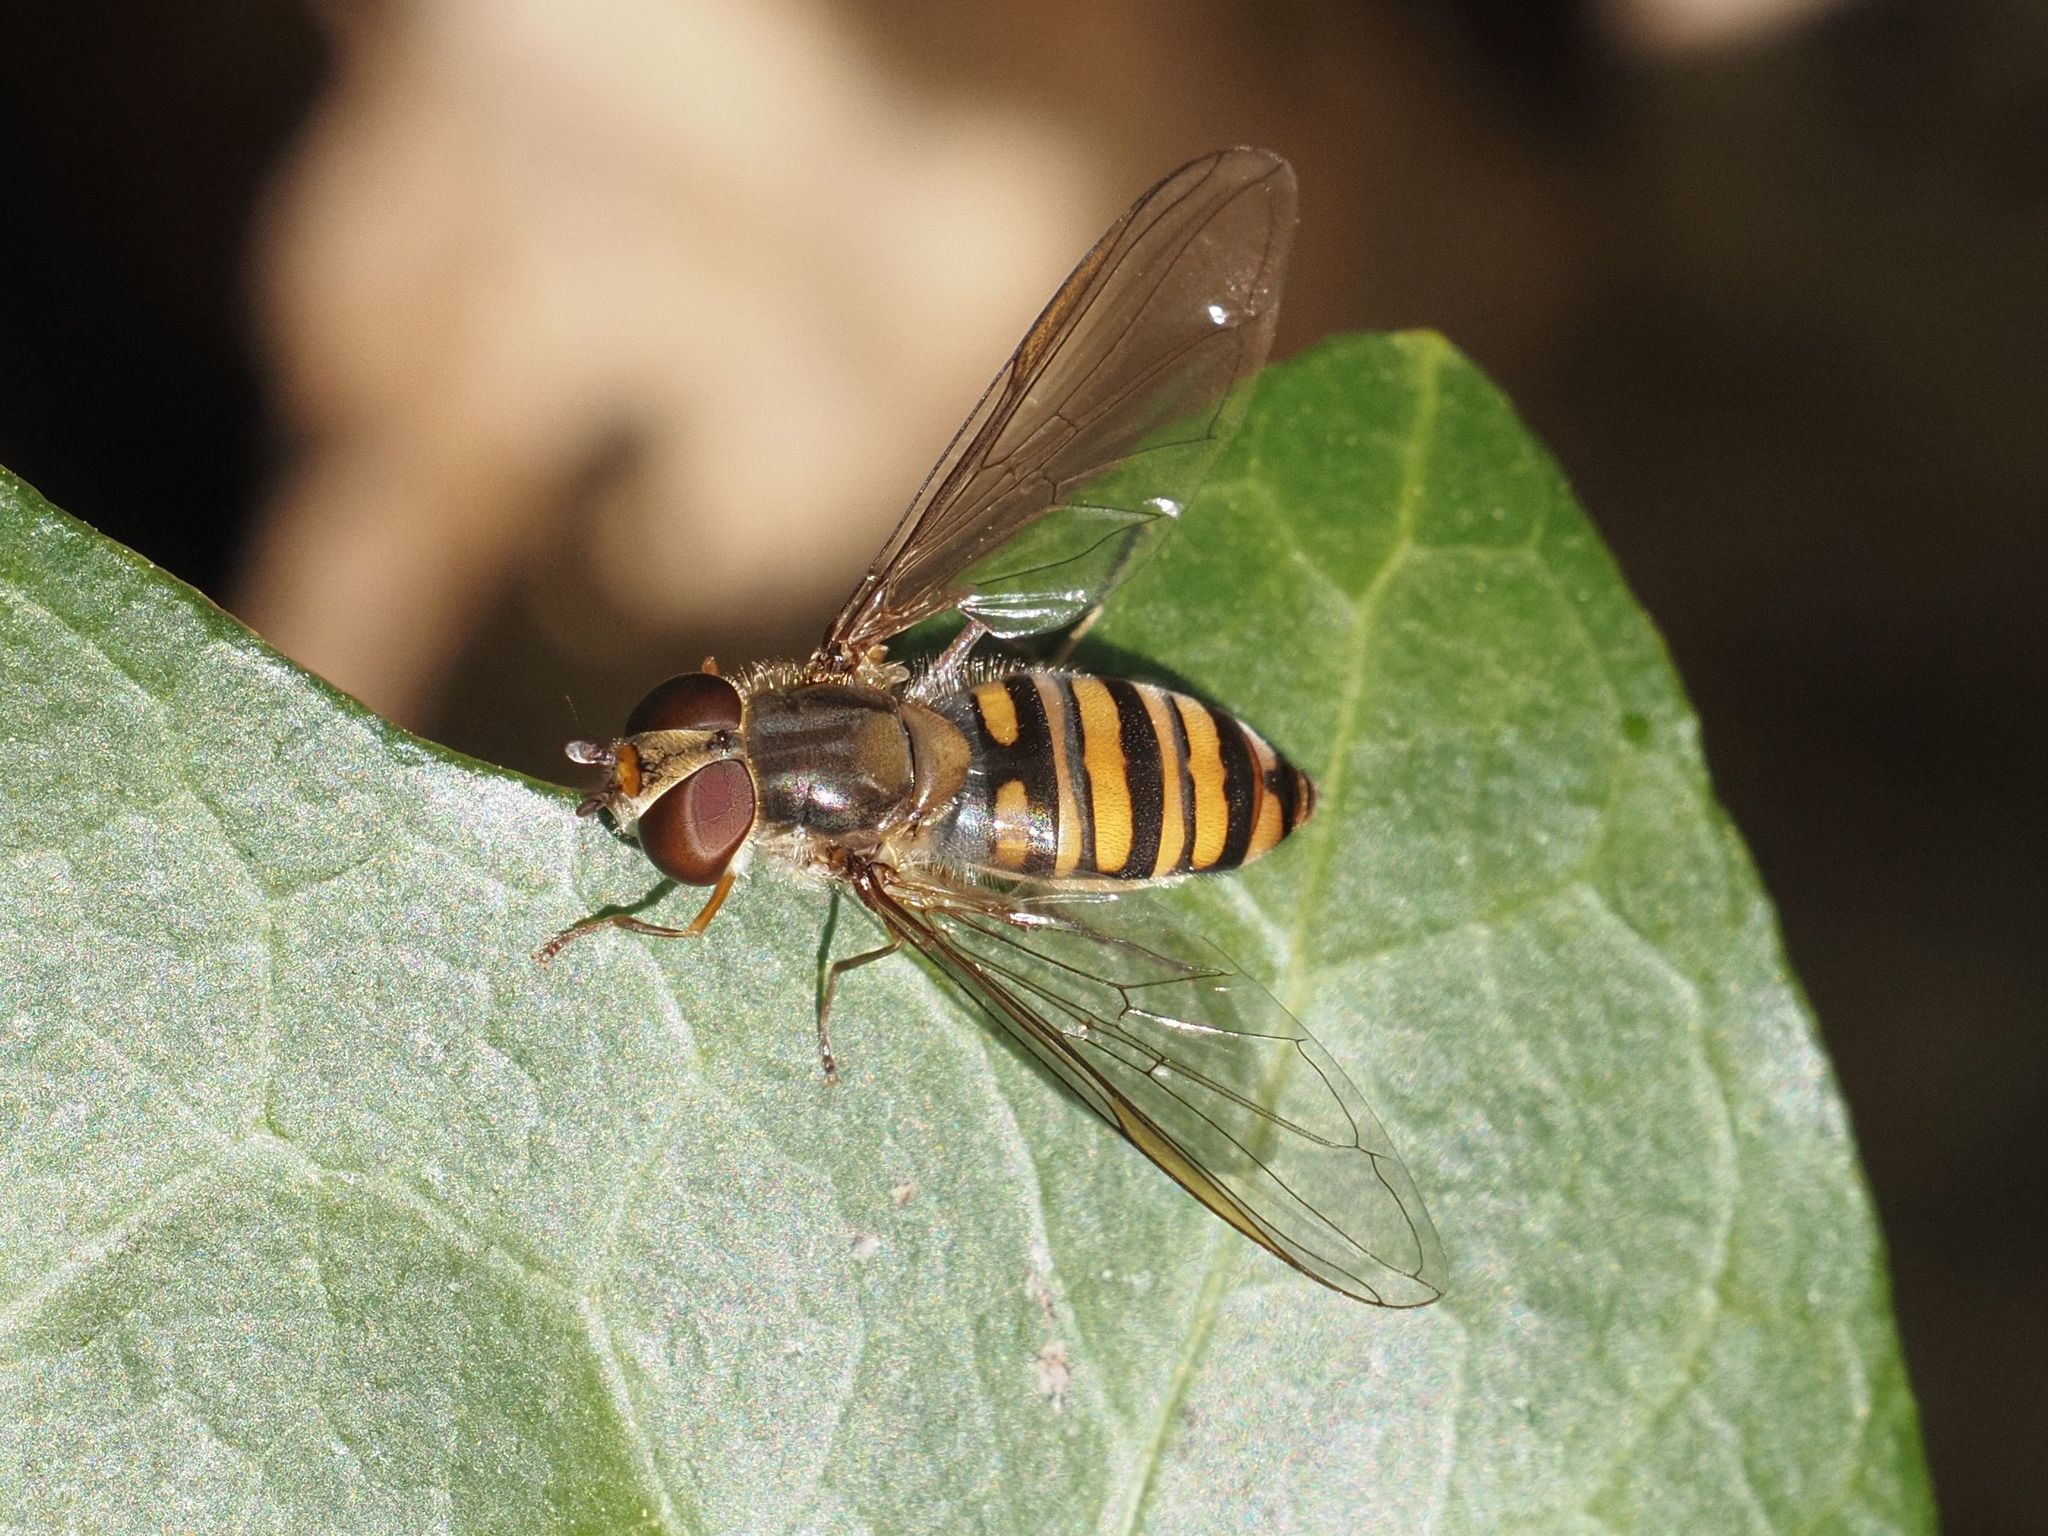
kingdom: Animalia
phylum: Arthropoda
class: Insecta
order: Diptera
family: Syrphidae
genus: Episyrphus
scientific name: Episyrphus balteatus
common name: Marmalade hoverfly
